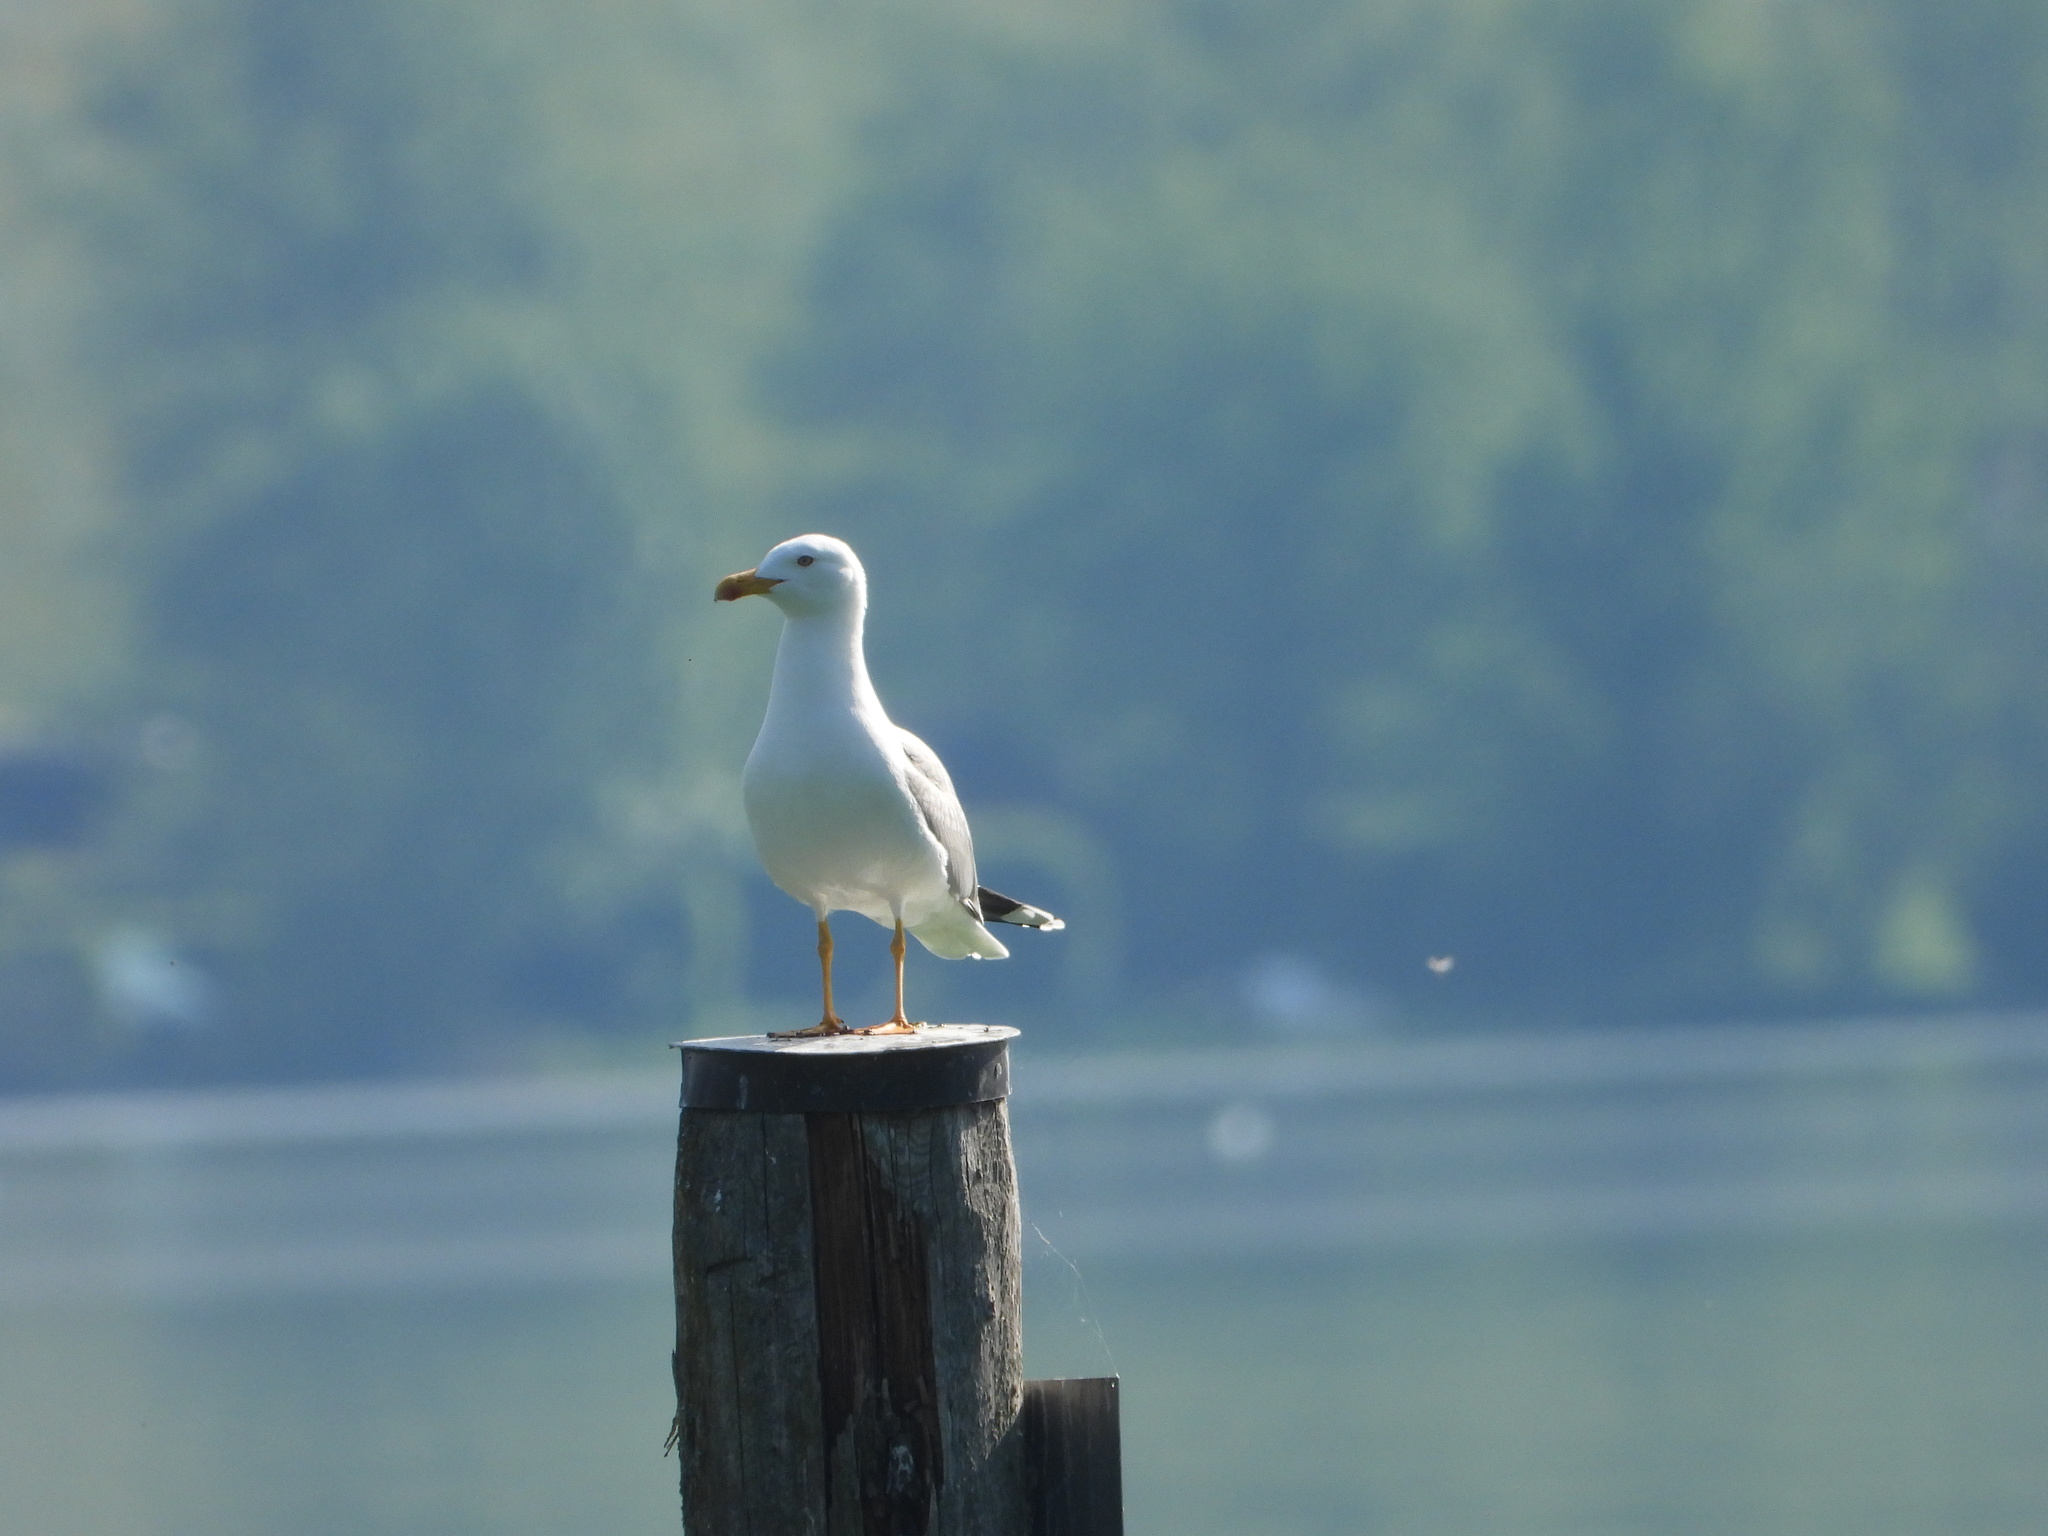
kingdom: Animalia
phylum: Chordata
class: Aves
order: Charadriiformes
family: Laridae
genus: Larus
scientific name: Larus michahellis
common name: Yellow-legged gull
